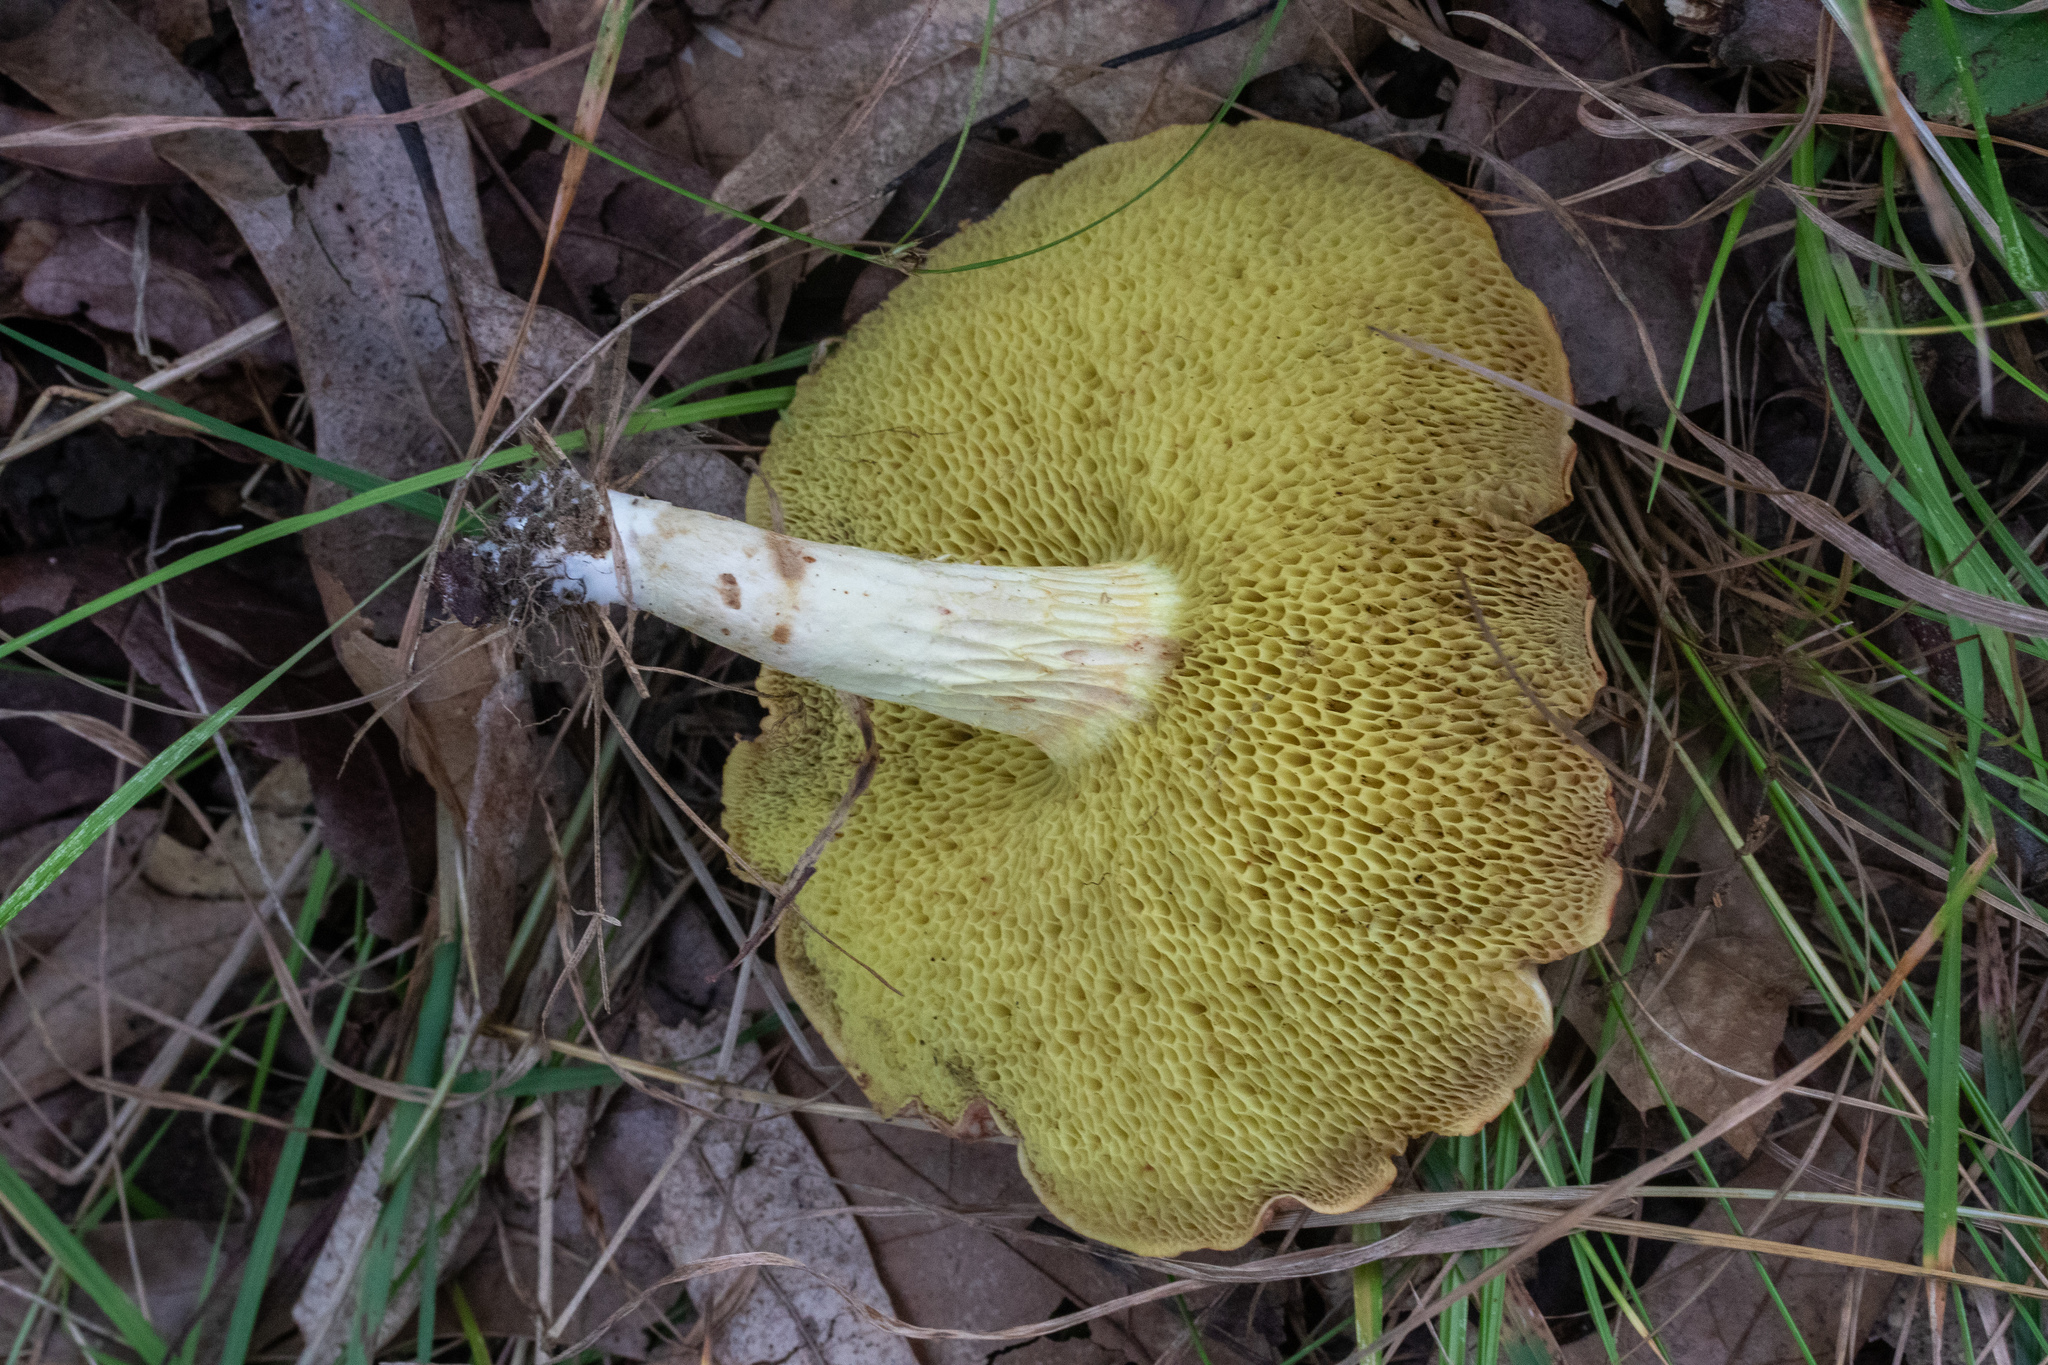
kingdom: Fungi
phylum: Basidiomycota
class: Agaricomycetes
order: Boletales
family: Boletaceae
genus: Xerocomus
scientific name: Xerocomus tenax
